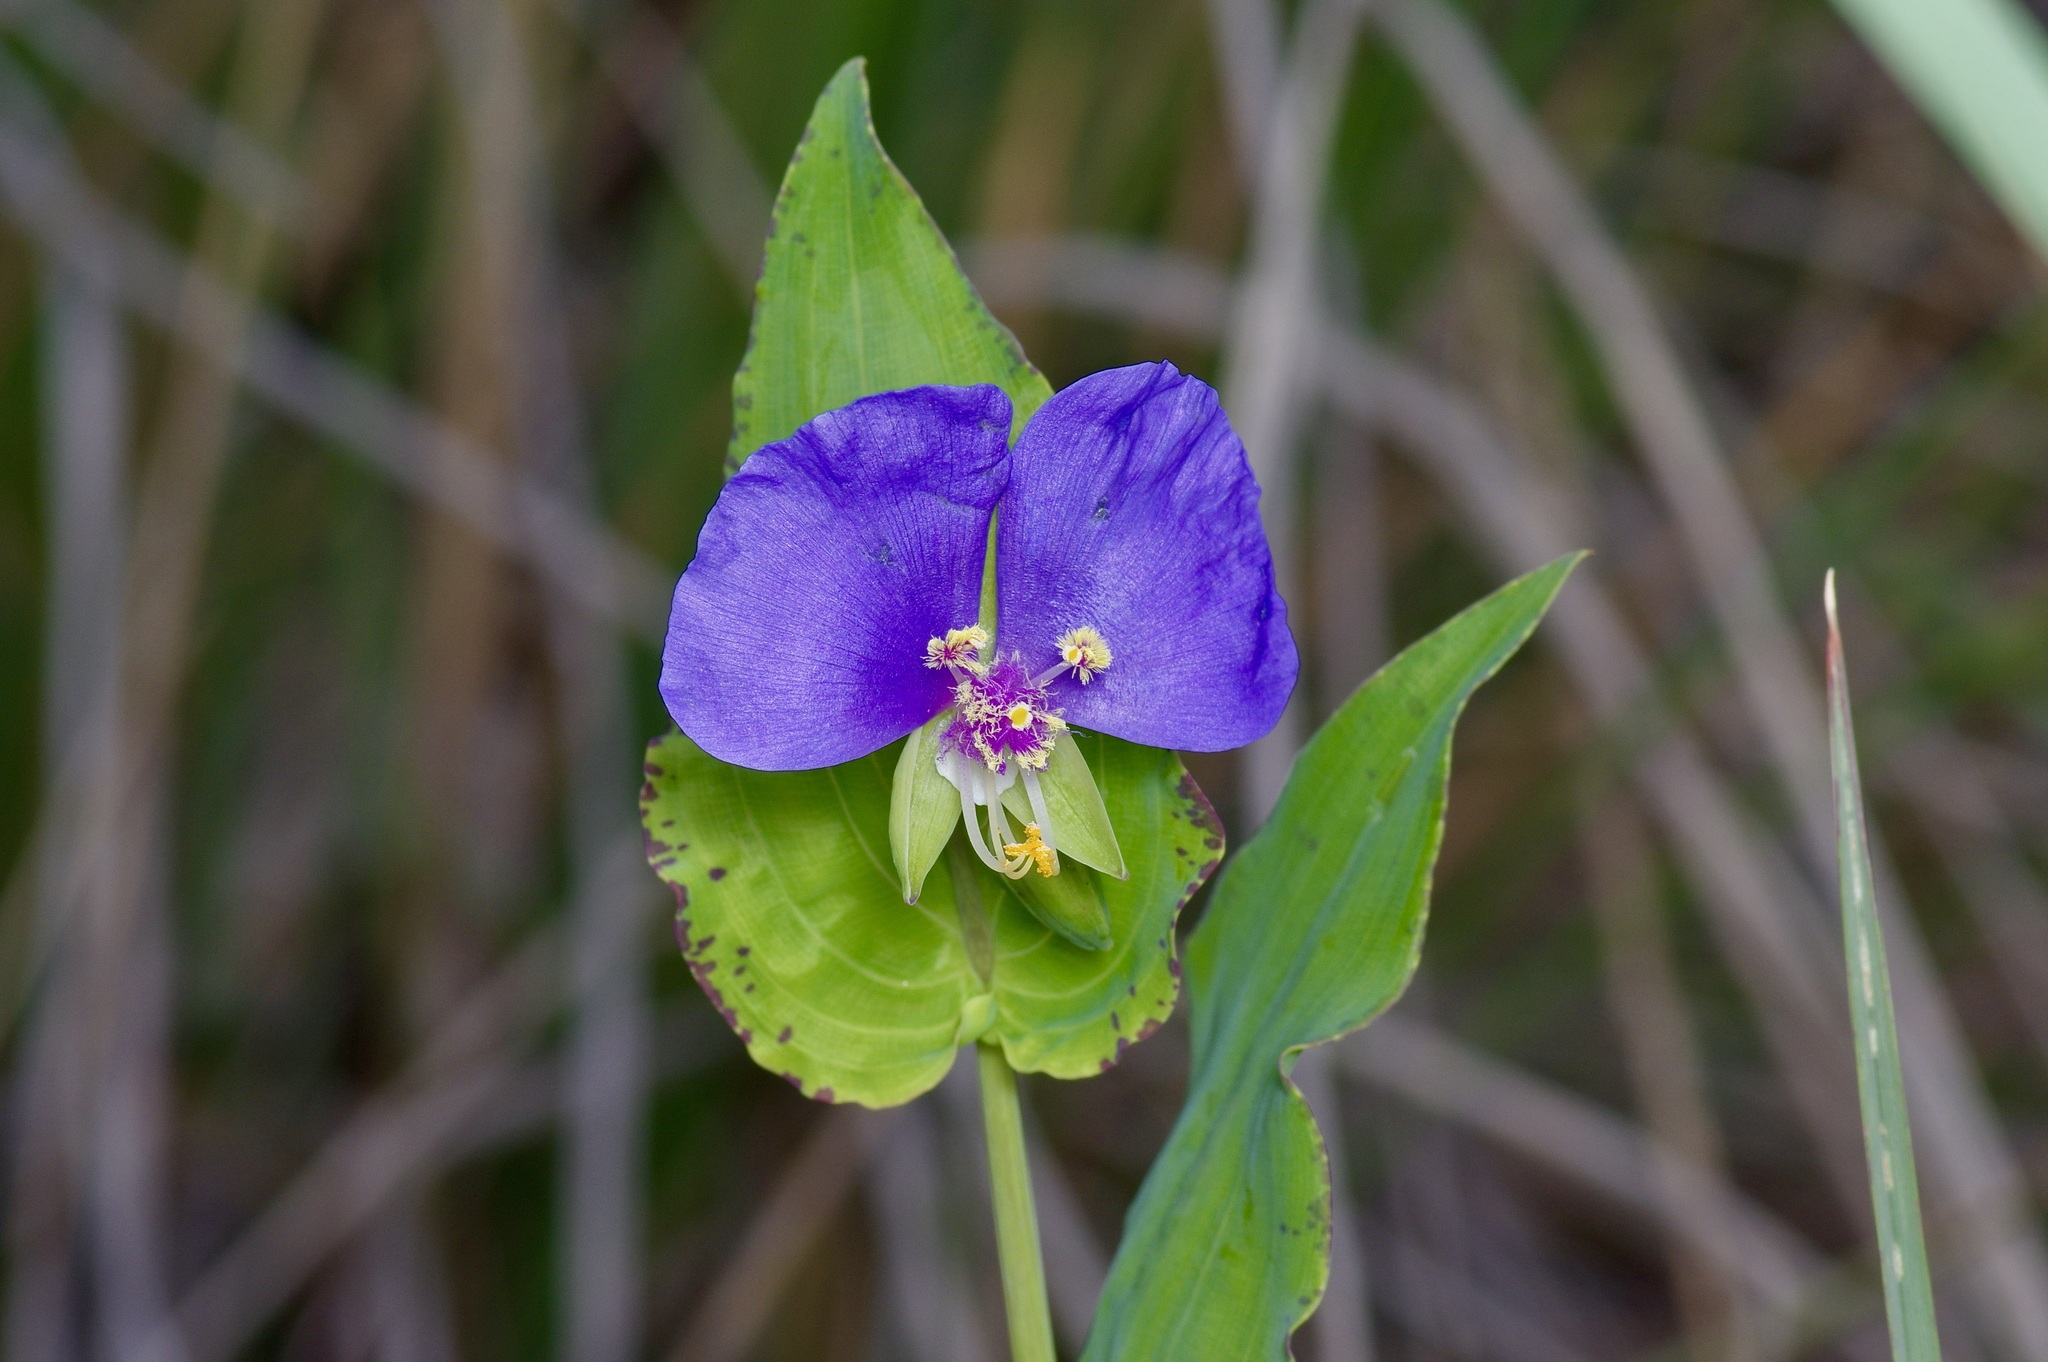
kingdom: Plantae
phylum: Tracheophyta
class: Liliopsida
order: Commelinales
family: Commelinaceae
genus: Tinantia
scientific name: Tinantia anomala
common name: False dayflower
